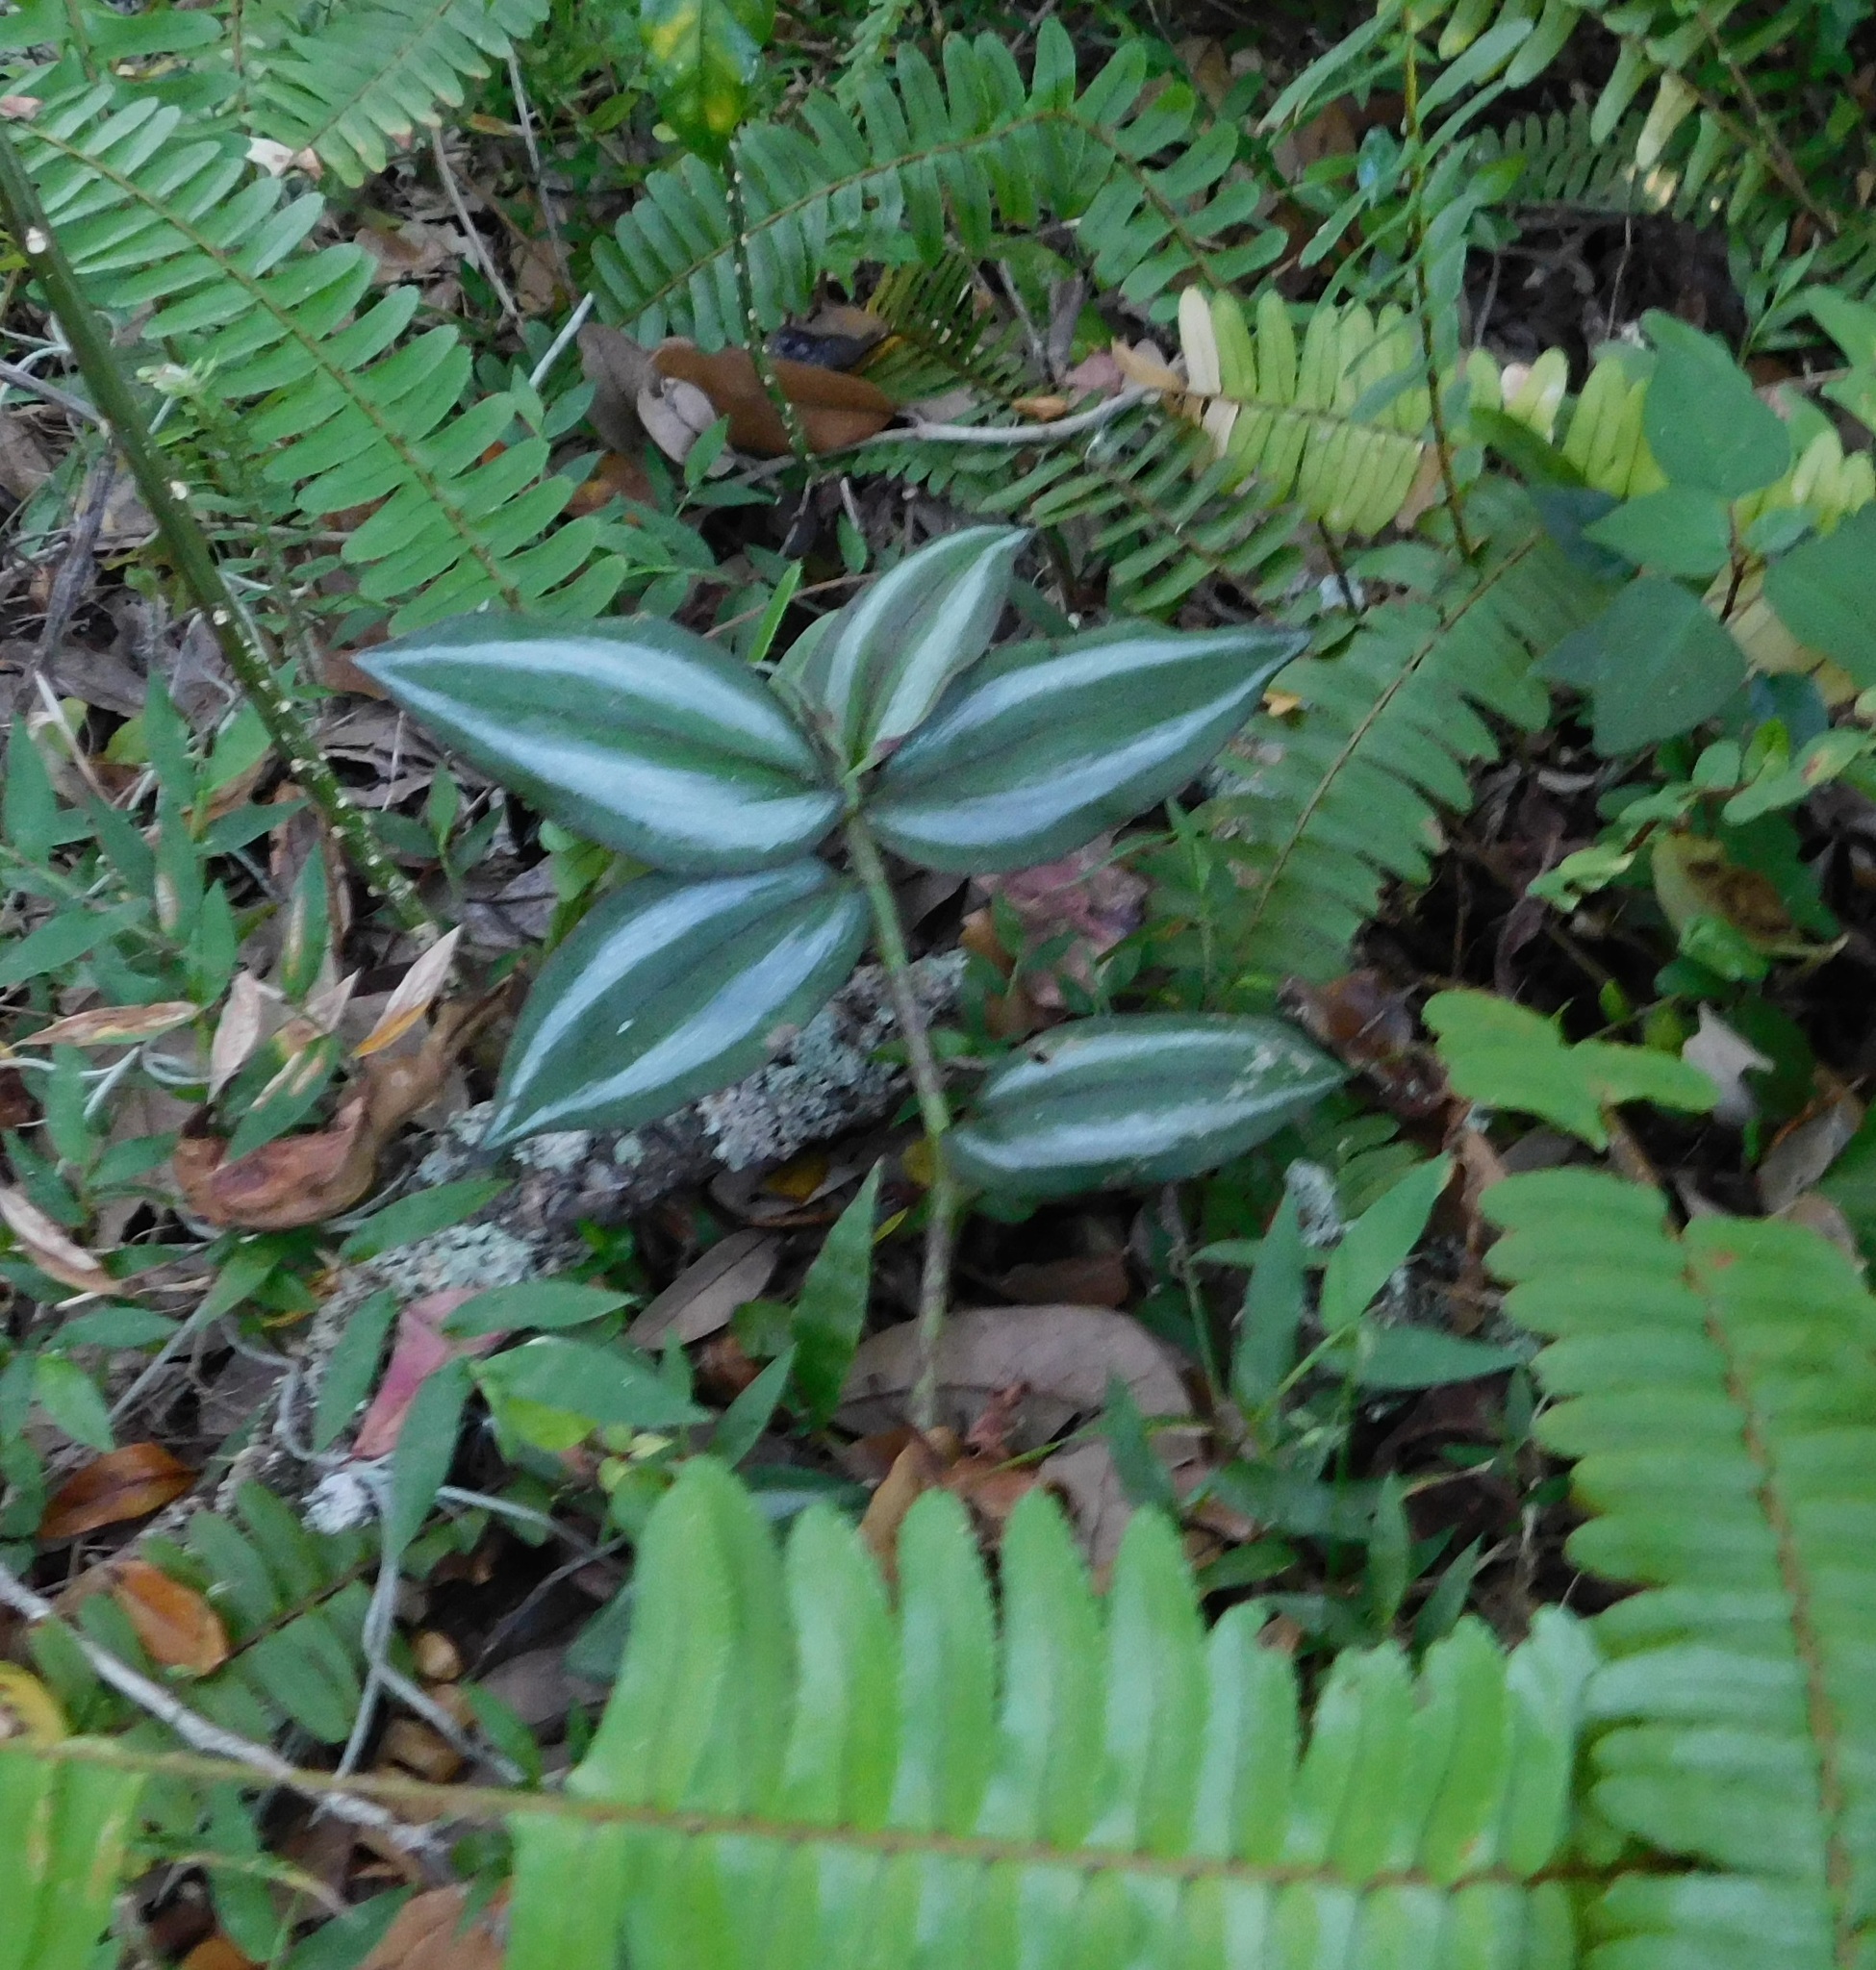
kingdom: Plantae
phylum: Tracheophyta
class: Liliopsida
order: Commelinales
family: Commelinaceae
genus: Tradescantia
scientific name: Tradescantia zebrina
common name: Inchplant
